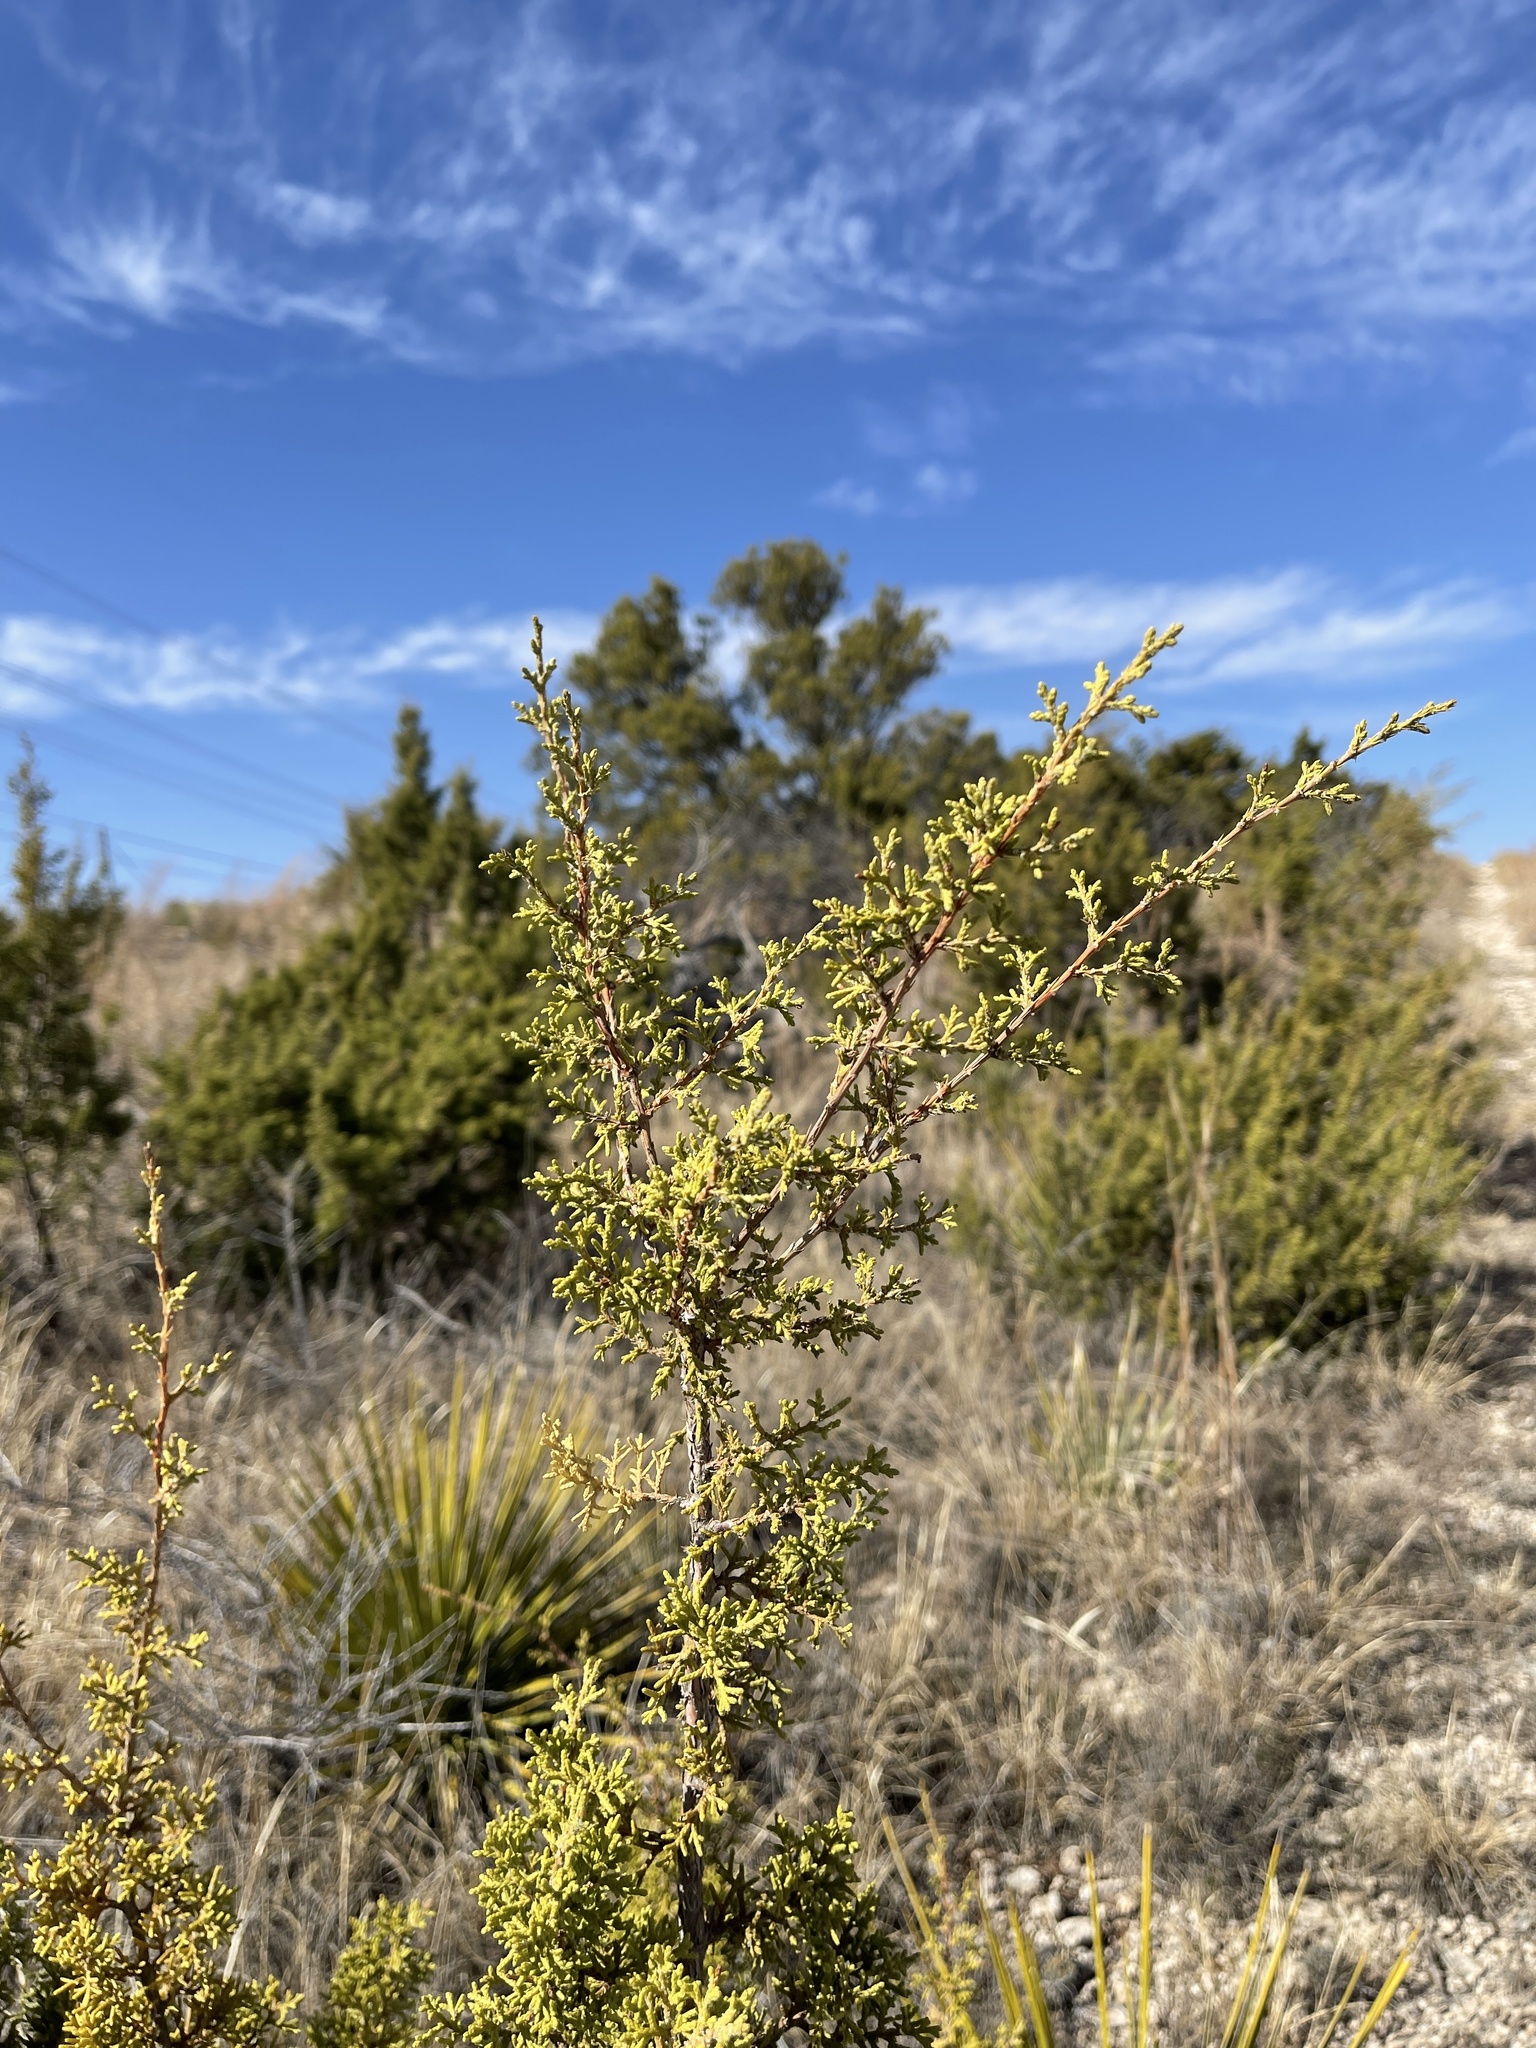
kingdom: Plantae
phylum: Tracheophyta
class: Pinopsida
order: Pinales
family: Cupressaceae
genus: Juniperus
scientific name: Juniperus pinchotii
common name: Pinchot juniper
